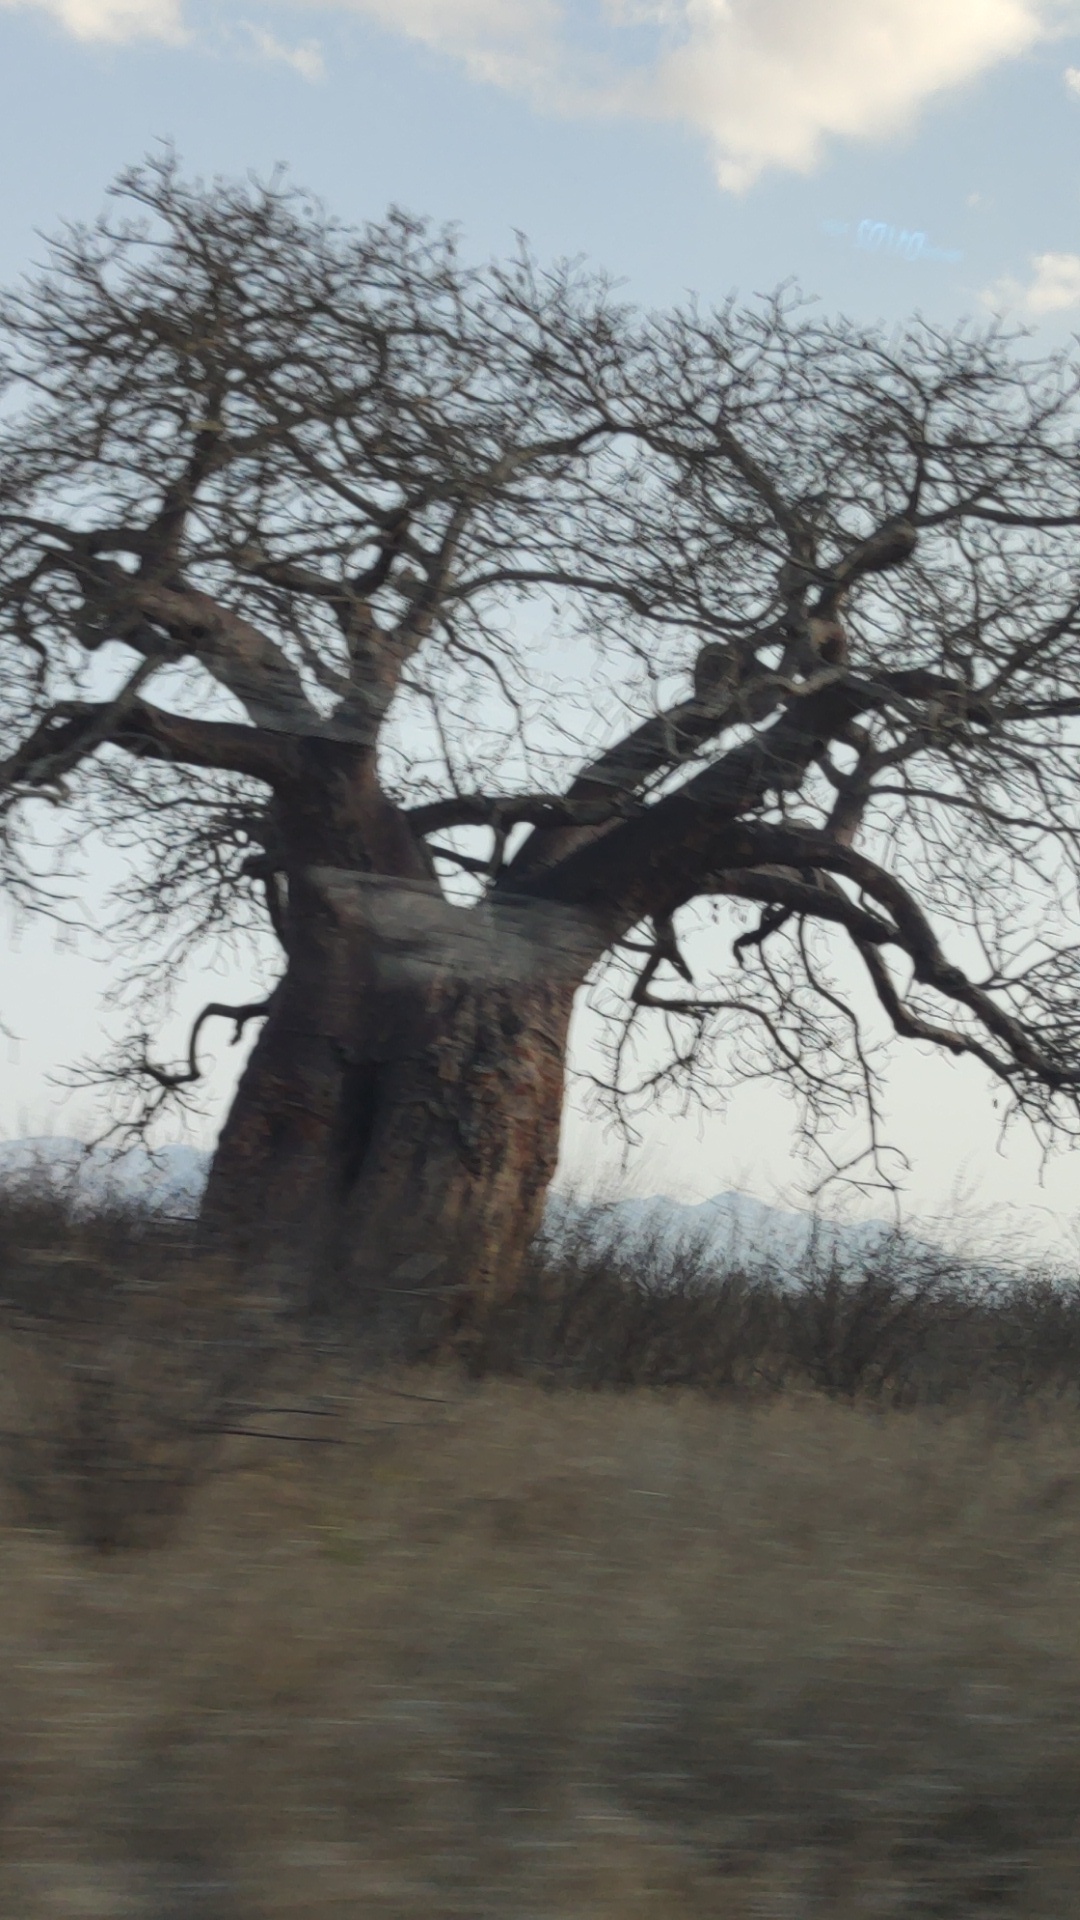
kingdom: Plantae
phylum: Tracheophyta
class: Magnoliopsida
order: Malvales
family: Malvaceae
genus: Adansonia
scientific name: Adansonia digitata
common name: Dead-rat-tree
